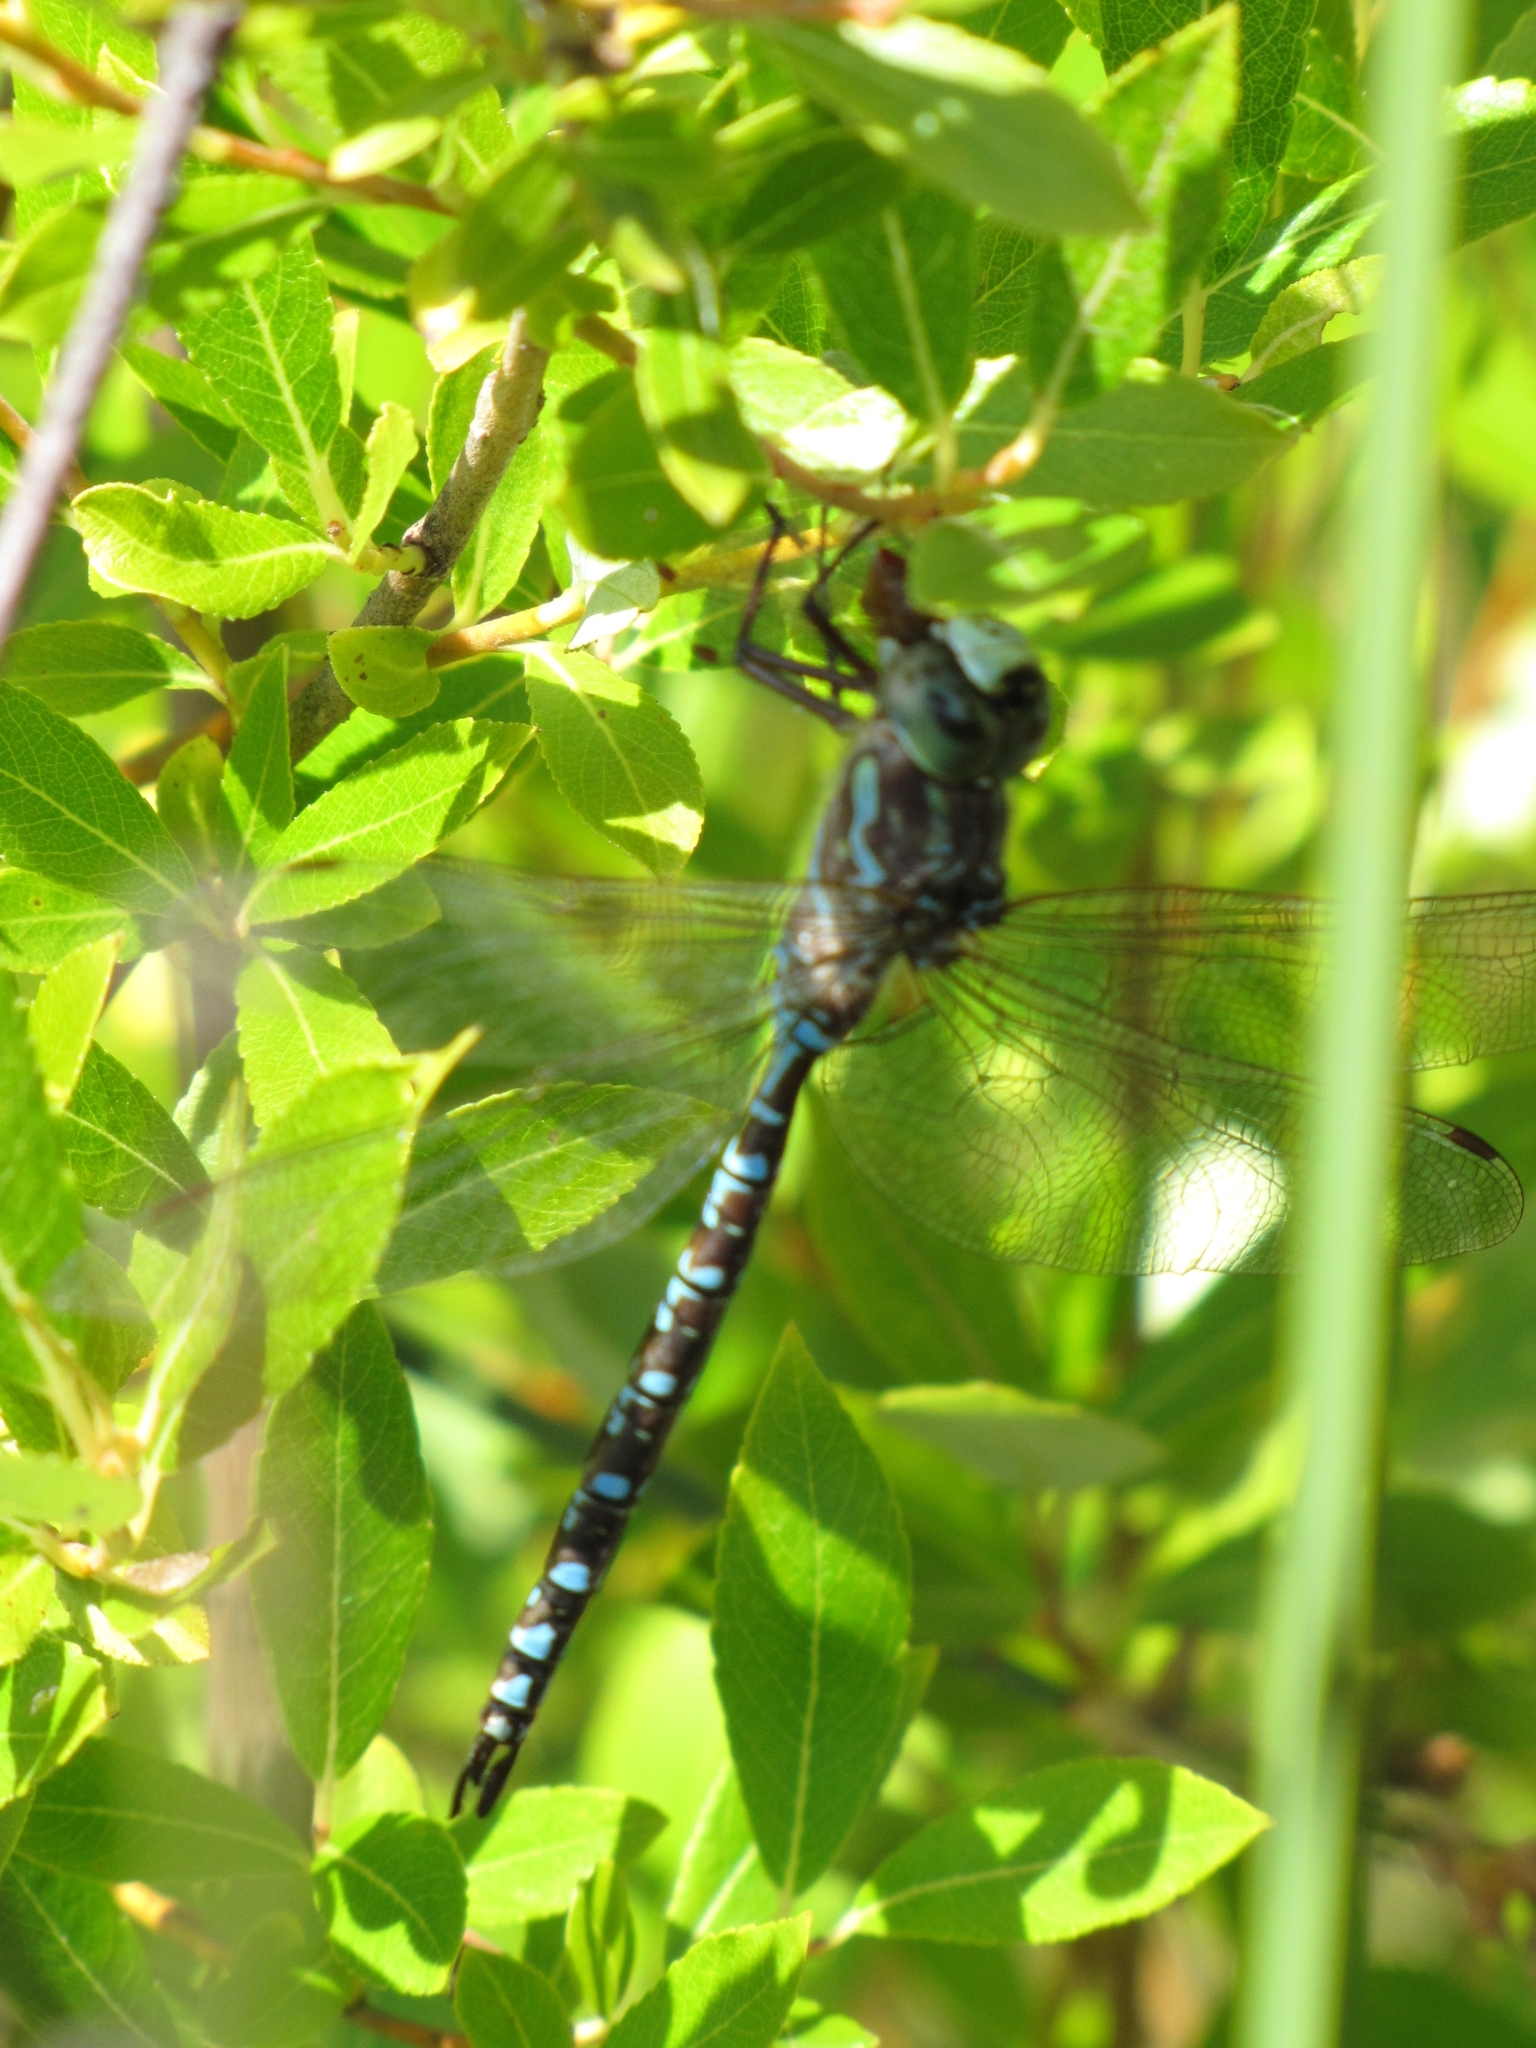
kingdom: Animalia
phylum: Arthropoda
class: Insecta
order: Odonata
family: Aeshnidae
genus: Aeshna
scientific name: Aeshna canadensis
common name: Canada darner
